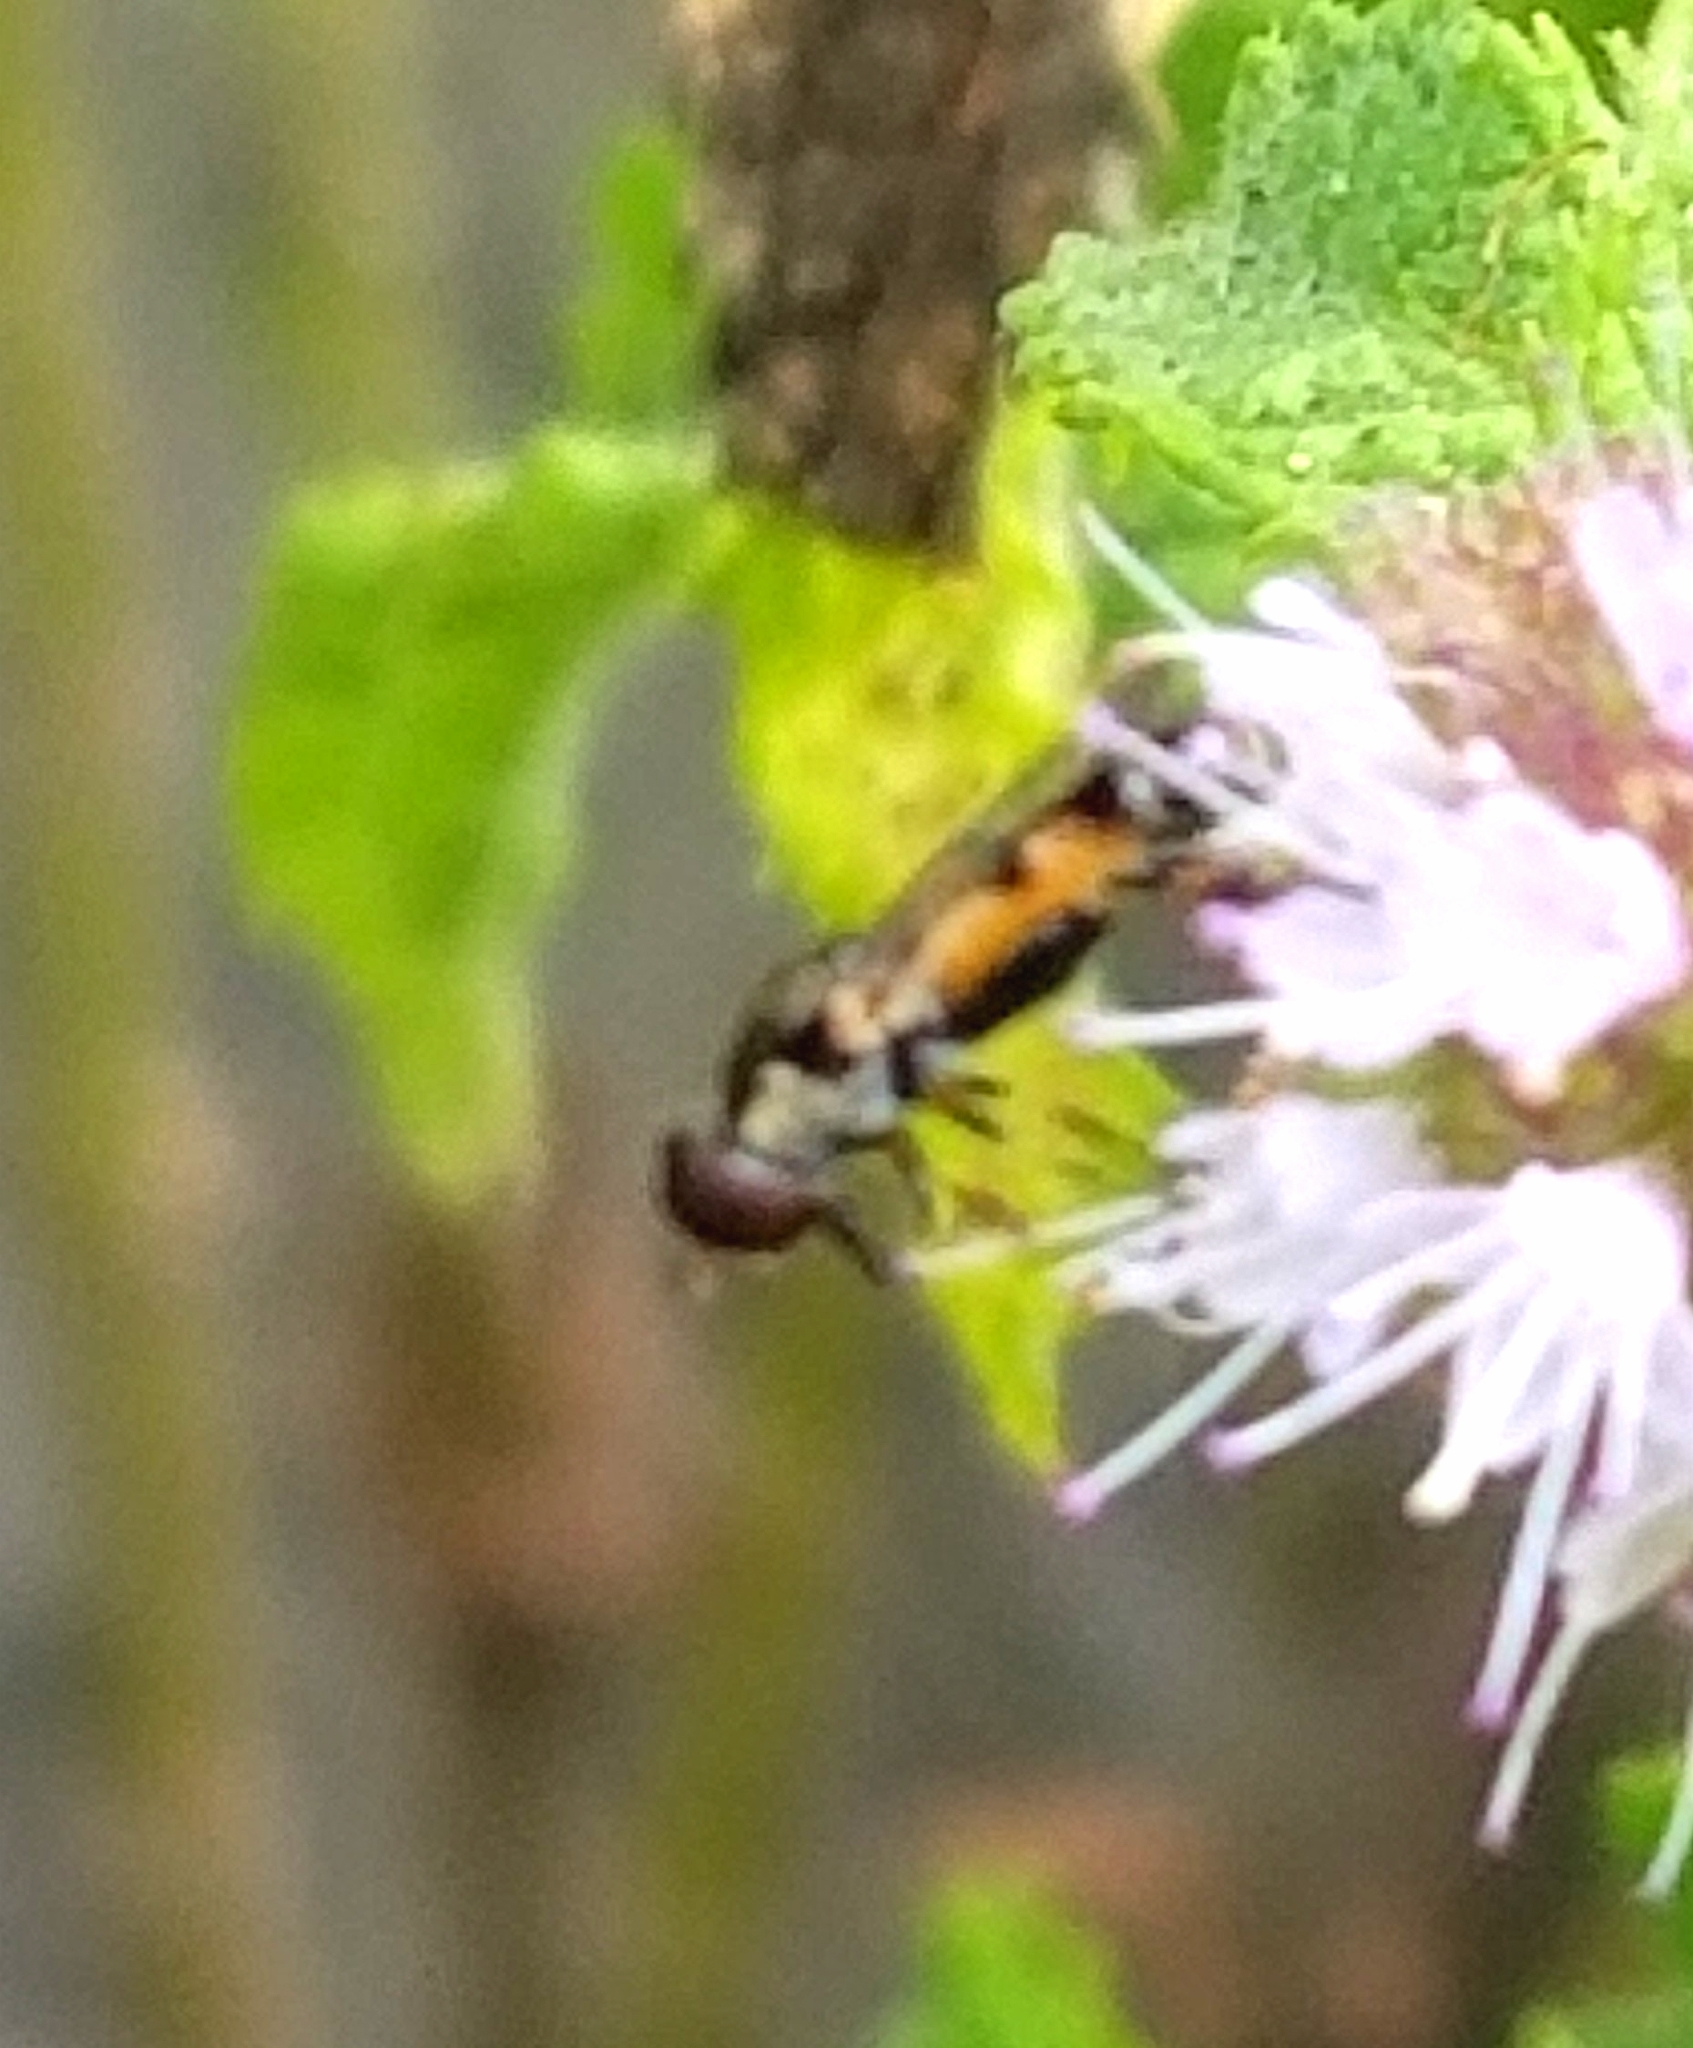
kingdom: Animalia
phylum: Arthropoda
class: Insecta
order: Diptera
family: Syrphidae
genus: Syritta
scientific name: Syritta pipiens
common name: Hover fly
